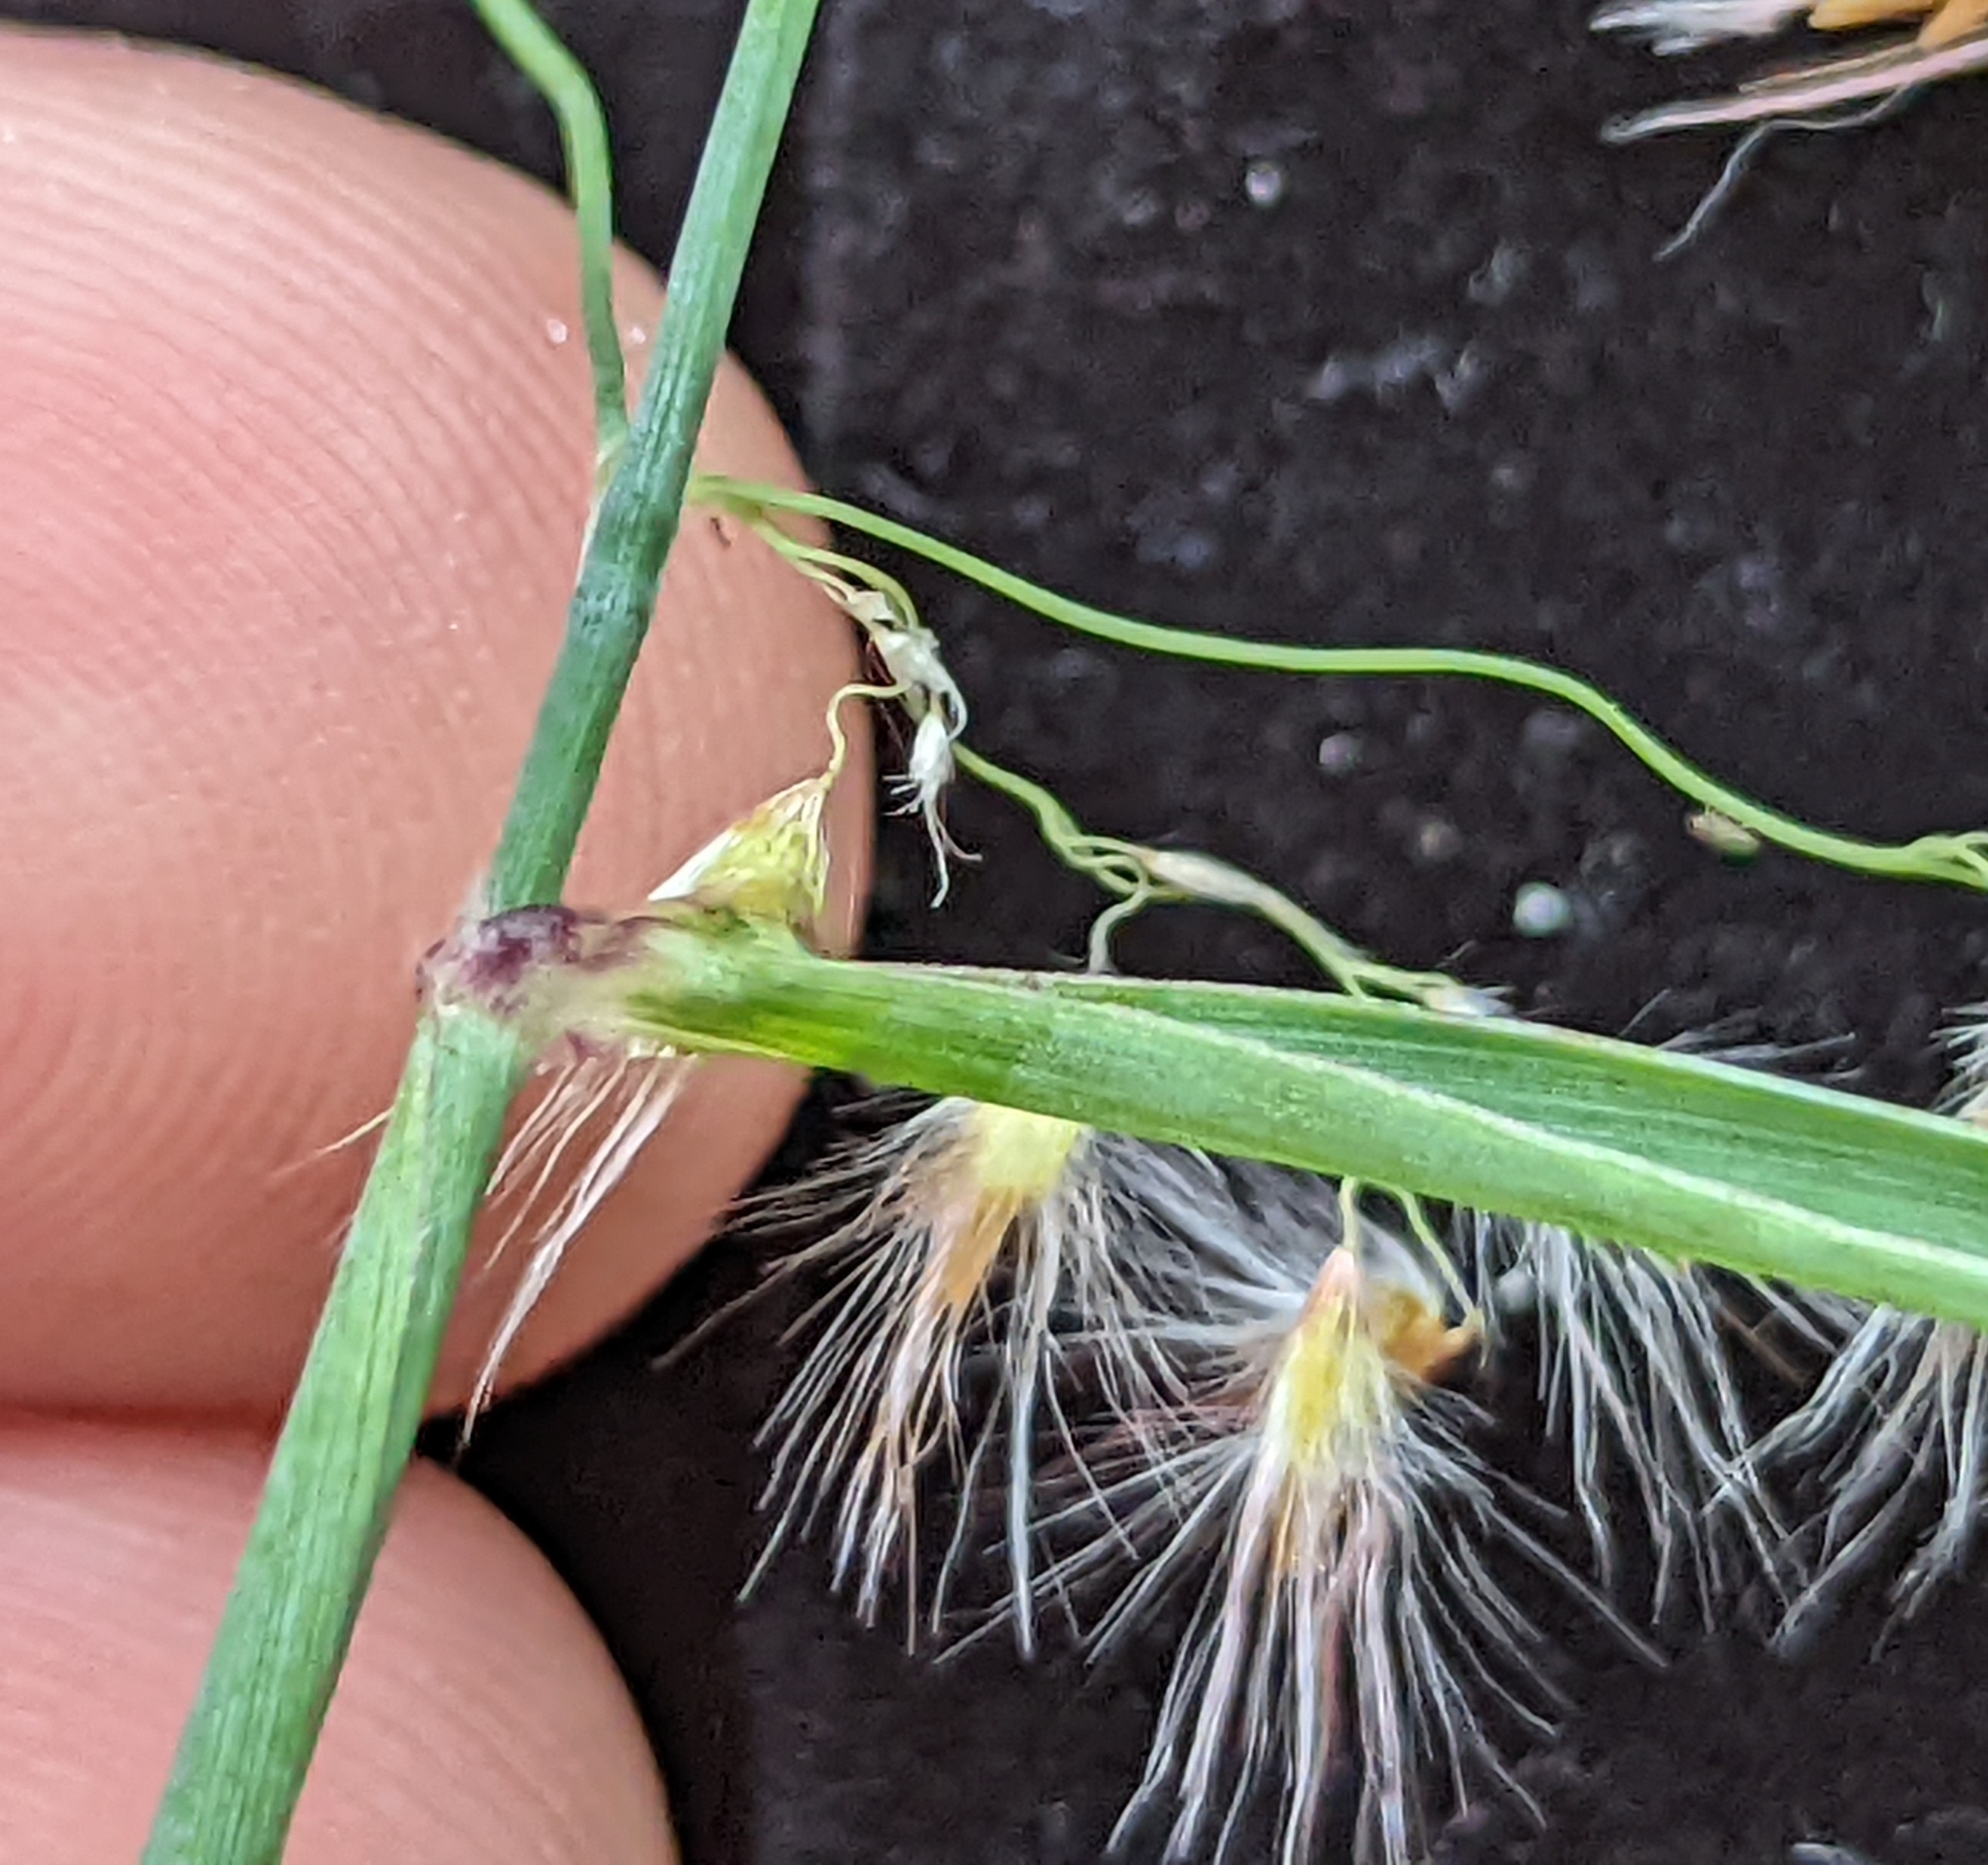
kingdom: Plantae
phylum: Tracheophyta
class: Liliopsida
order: Poales
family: Poaceae
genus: Melinis
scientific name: Melinis repens
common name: Rose natal grass
